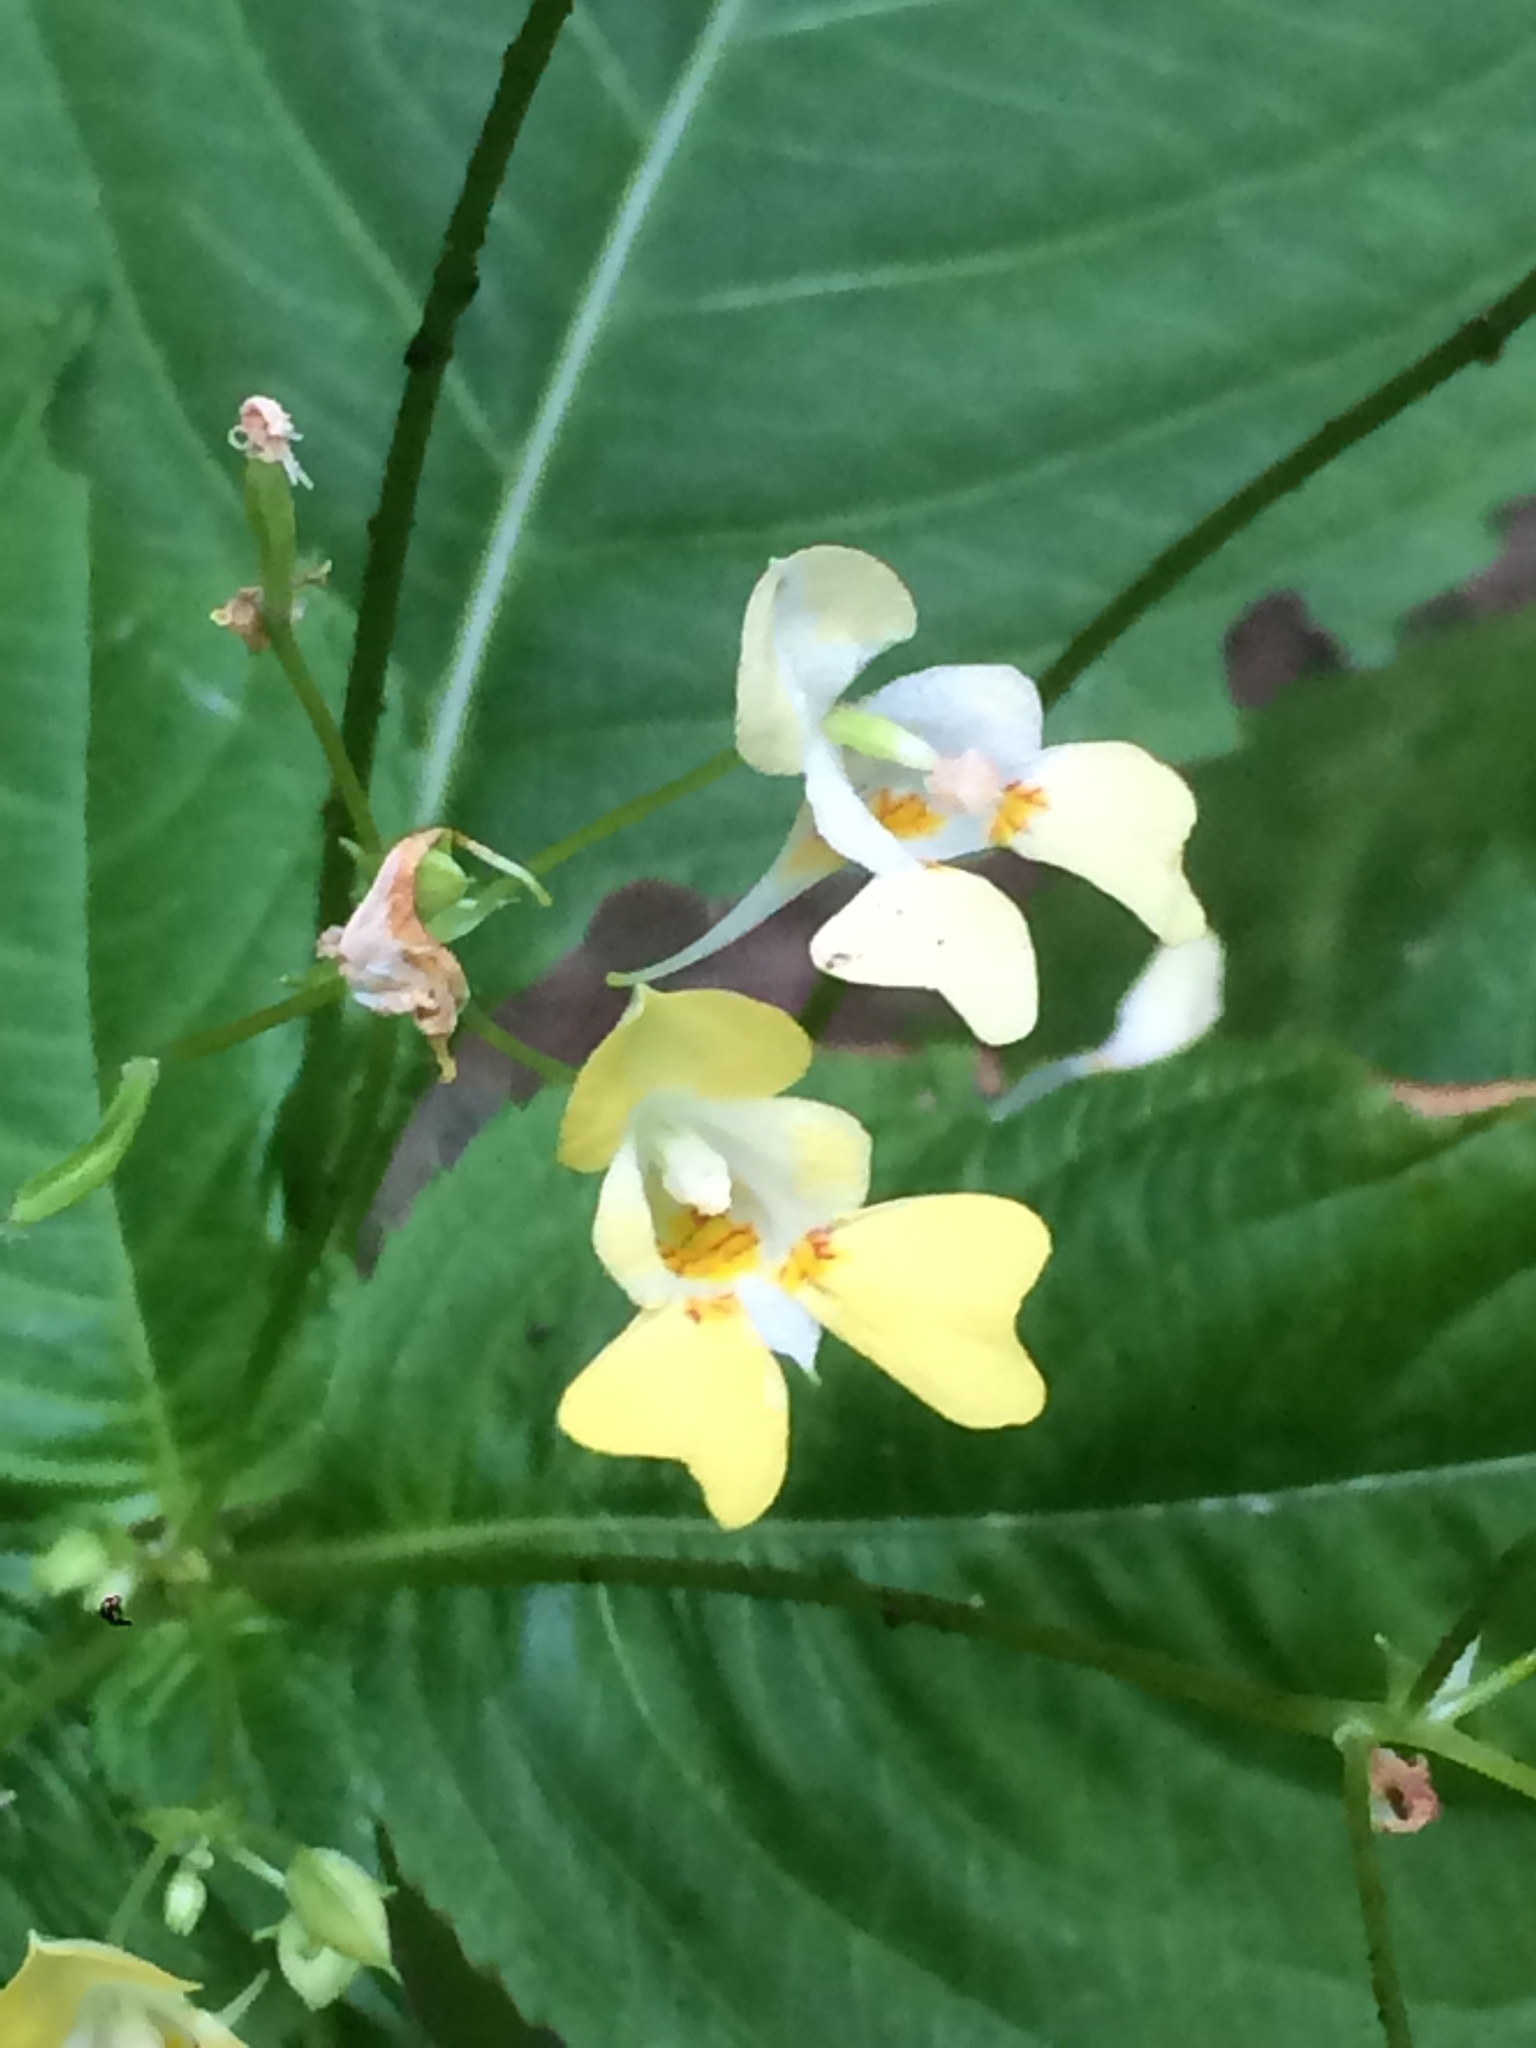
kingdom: Plantae
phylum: Tracheophyta
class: Magnoliopsida
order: Ericales
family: Balsaminaceae
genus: Impatiens
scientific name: Impatiens parviflora
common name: Small balsam
